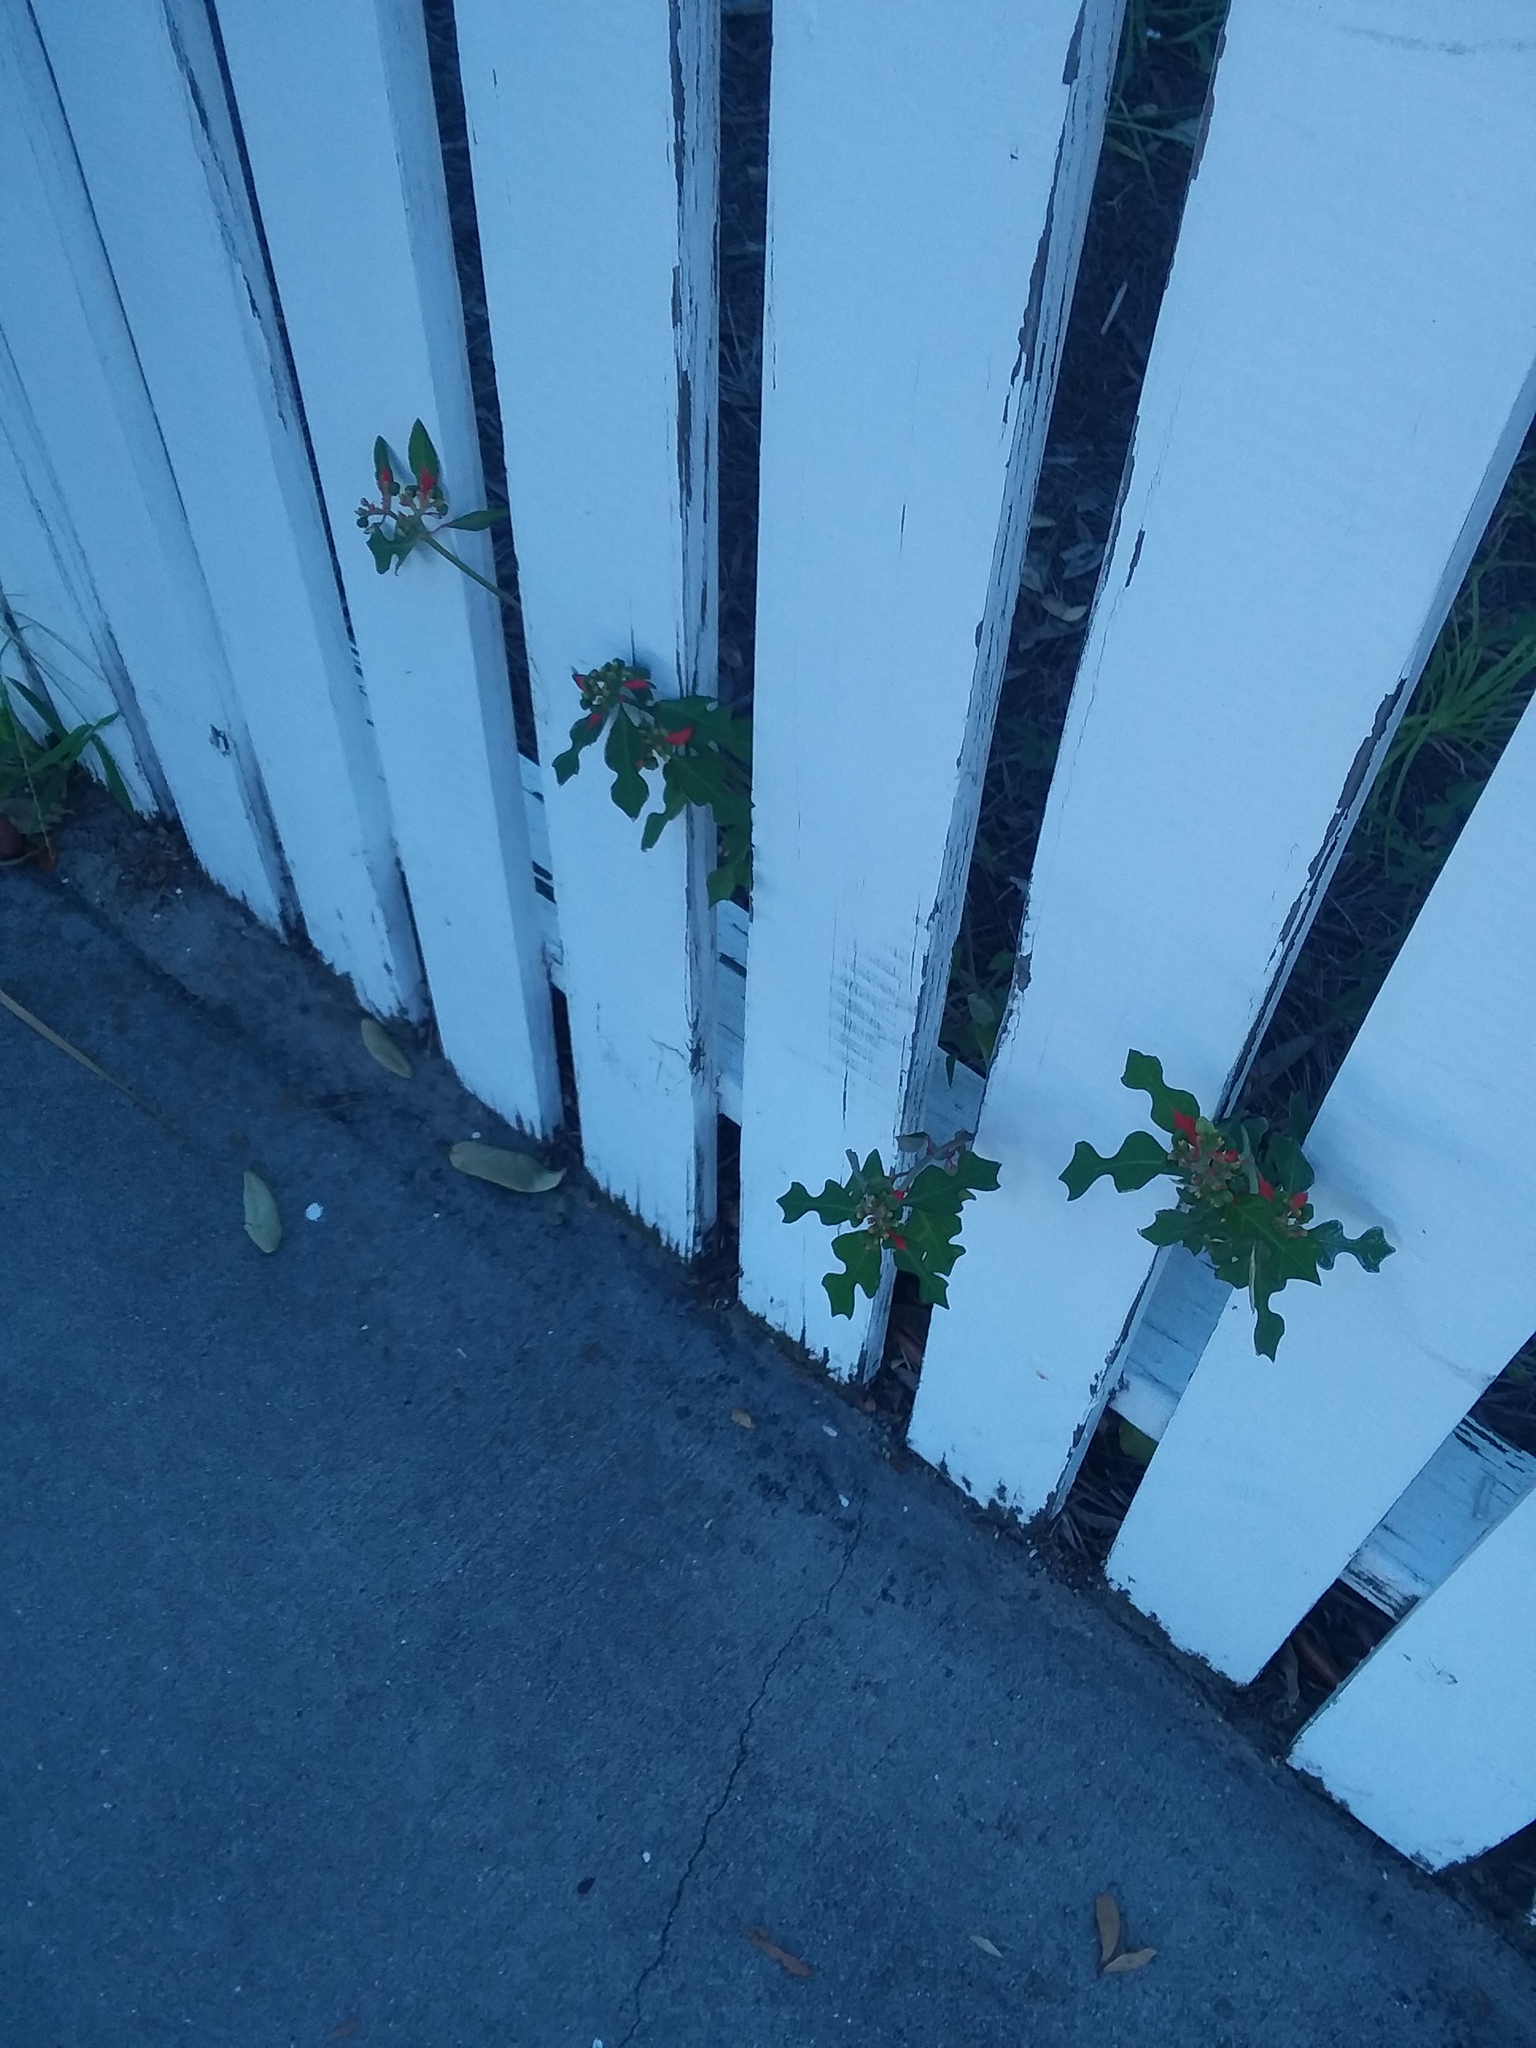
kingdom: Plantae
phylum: Tracheophyta
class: Magnoliopsida
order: Malpighiales
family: Euphorbiaceae
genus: Euphorbia
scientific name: Euphorbia heterophylla
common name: Mexican fireplant
